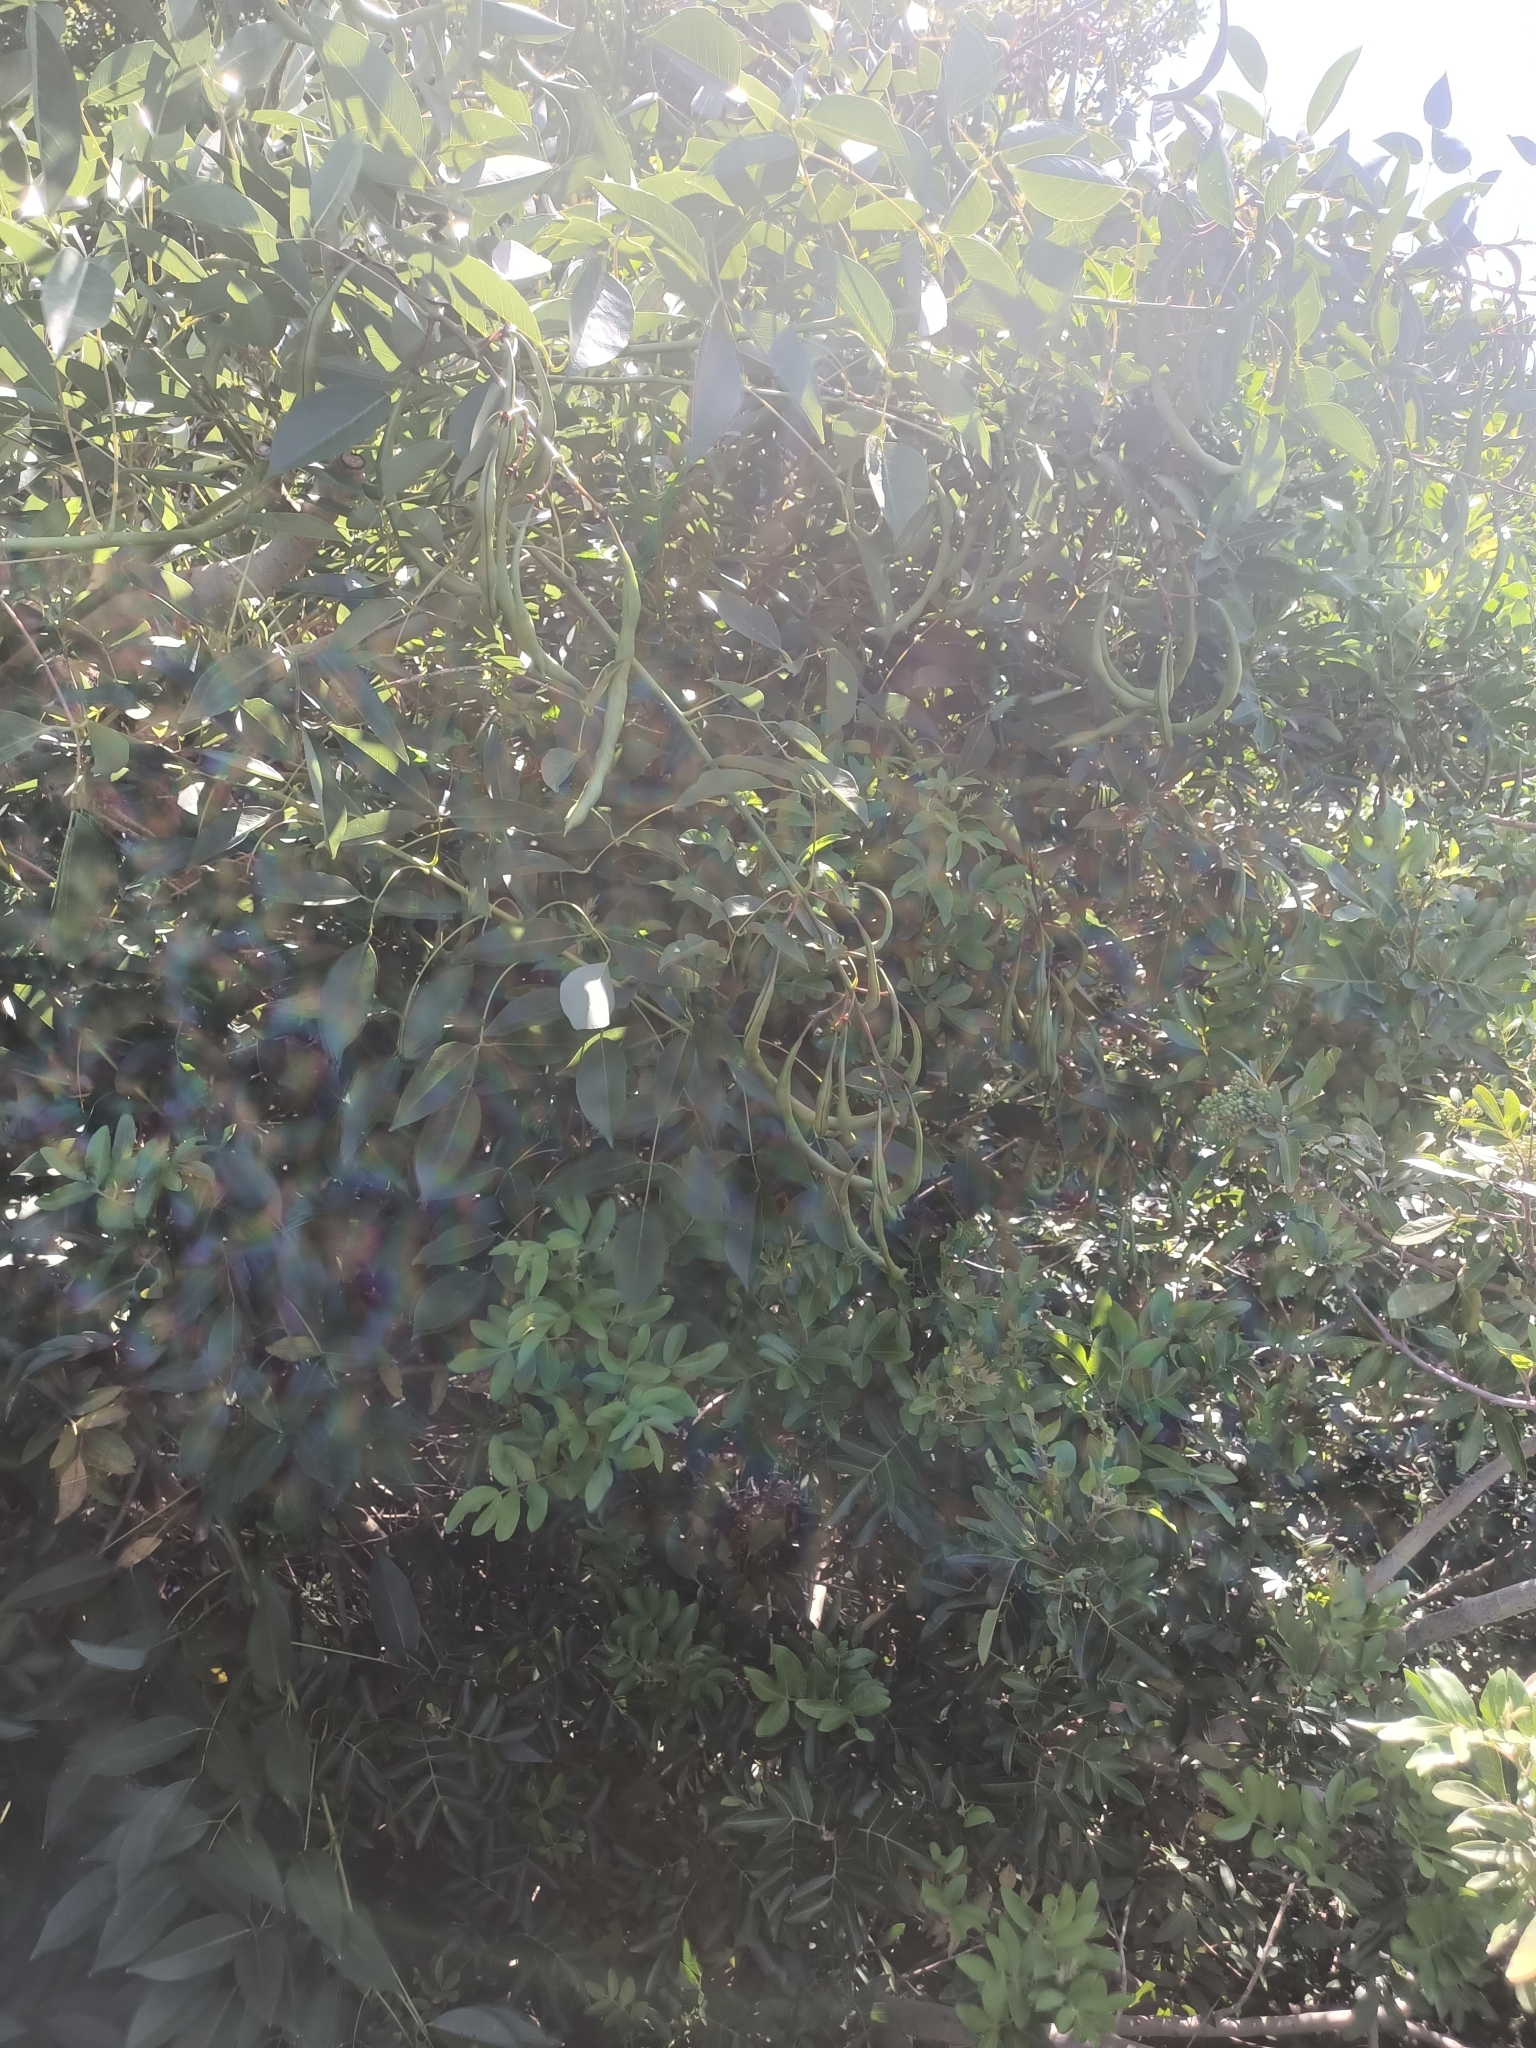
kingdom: Plantae
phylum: Tracheophyta
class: Magnoliopsida
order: Fabales
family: Fabaceae
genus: Erythrina
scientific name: Erythrina crista-galli
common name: Cockspur coral tree
